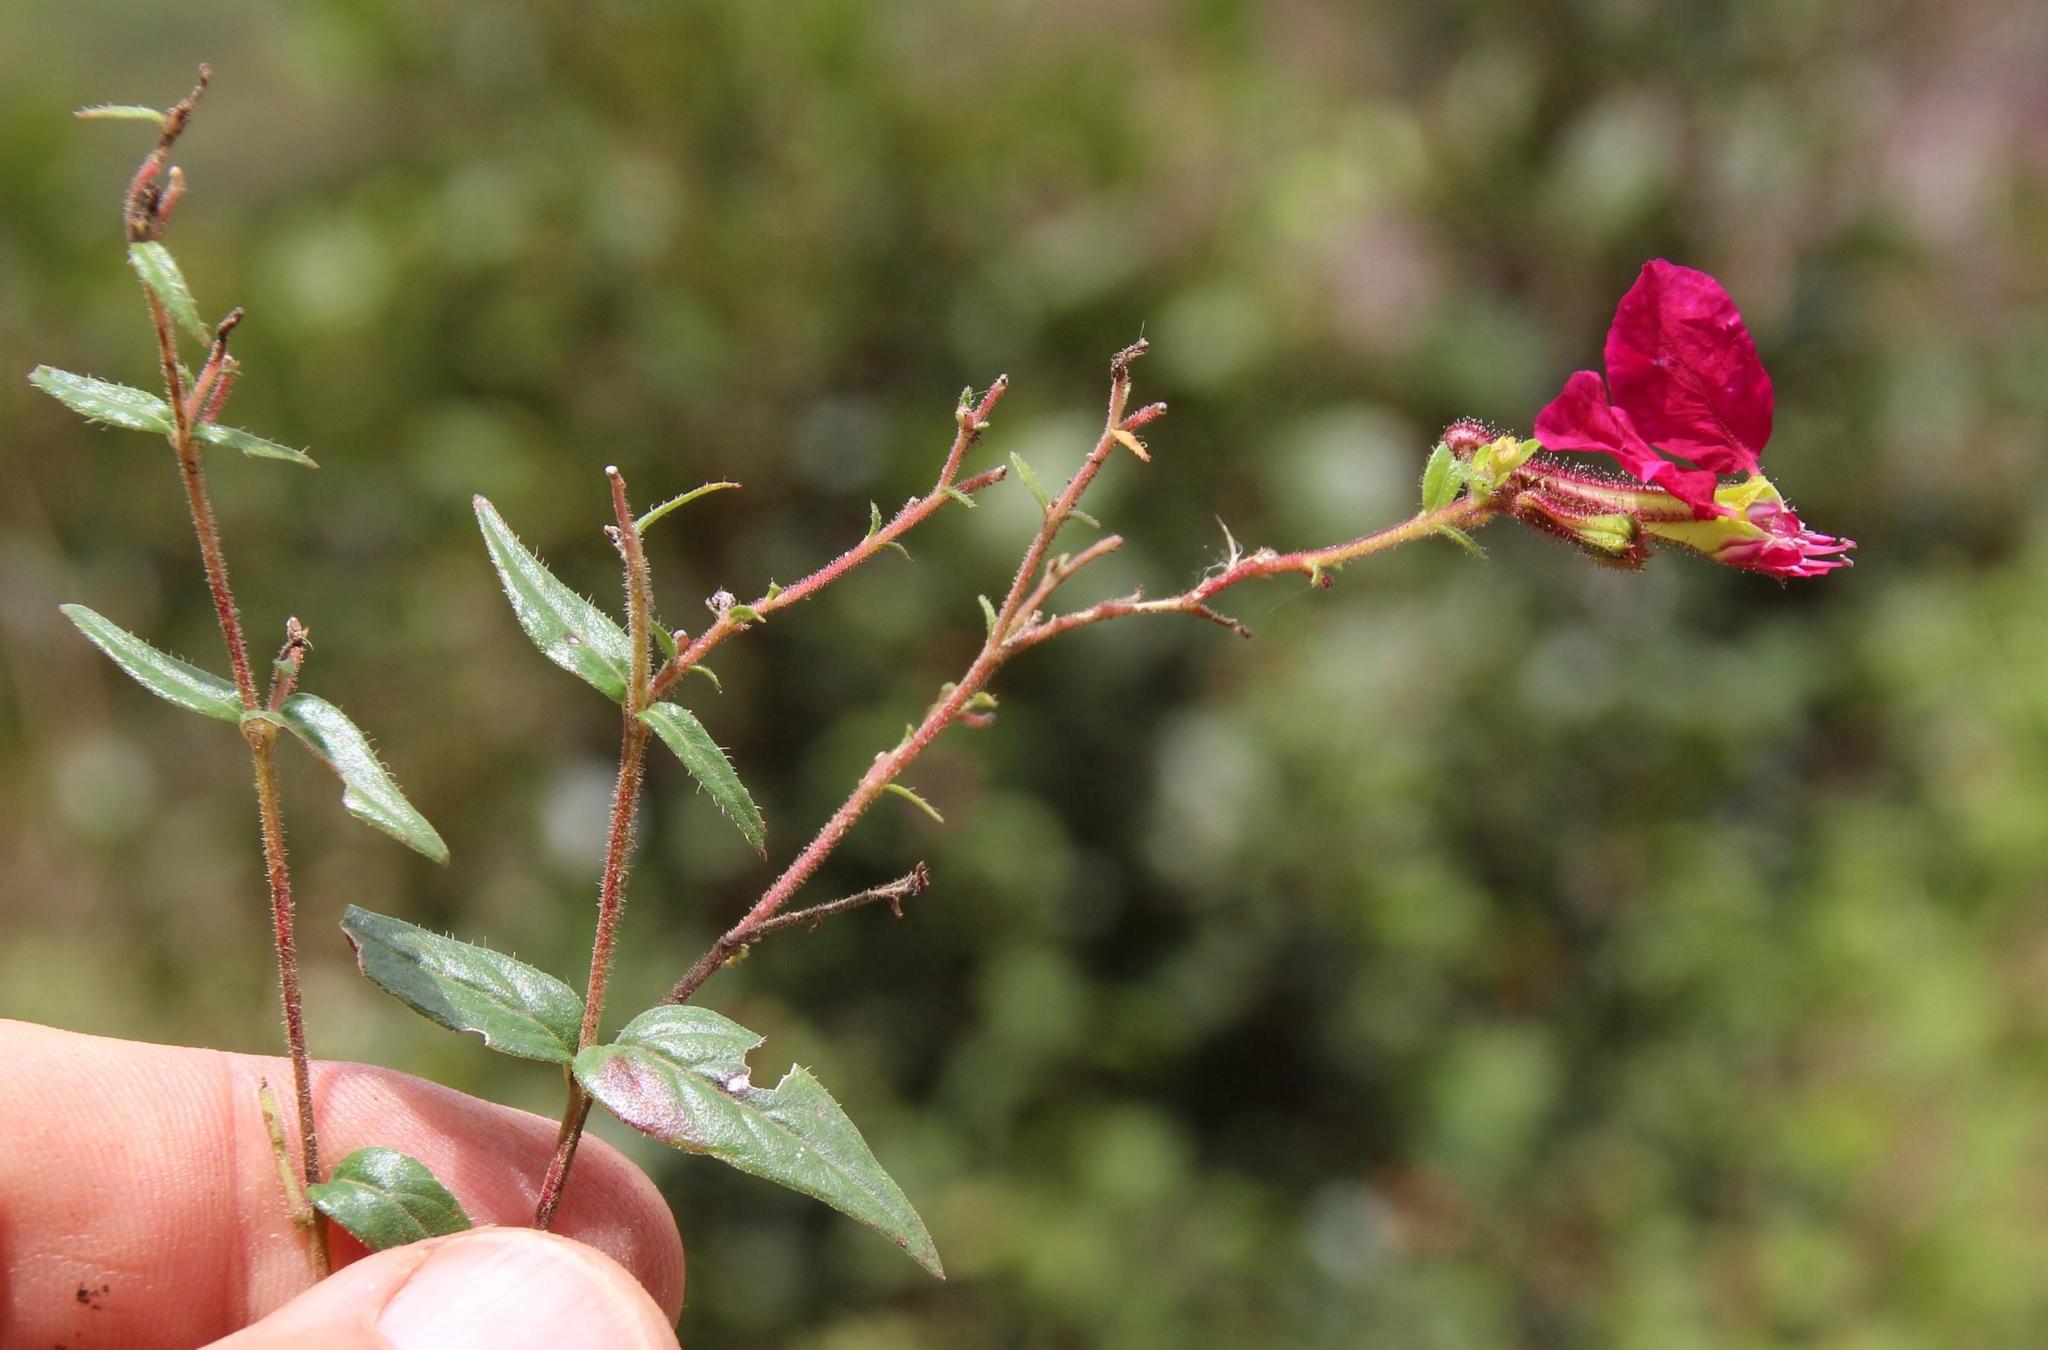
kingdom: Plantae
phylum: Tracheophyta
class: Magnoliopsida
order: Myrtales
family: Lythraceae
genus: Cuphea
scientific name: Cuphea cordata
